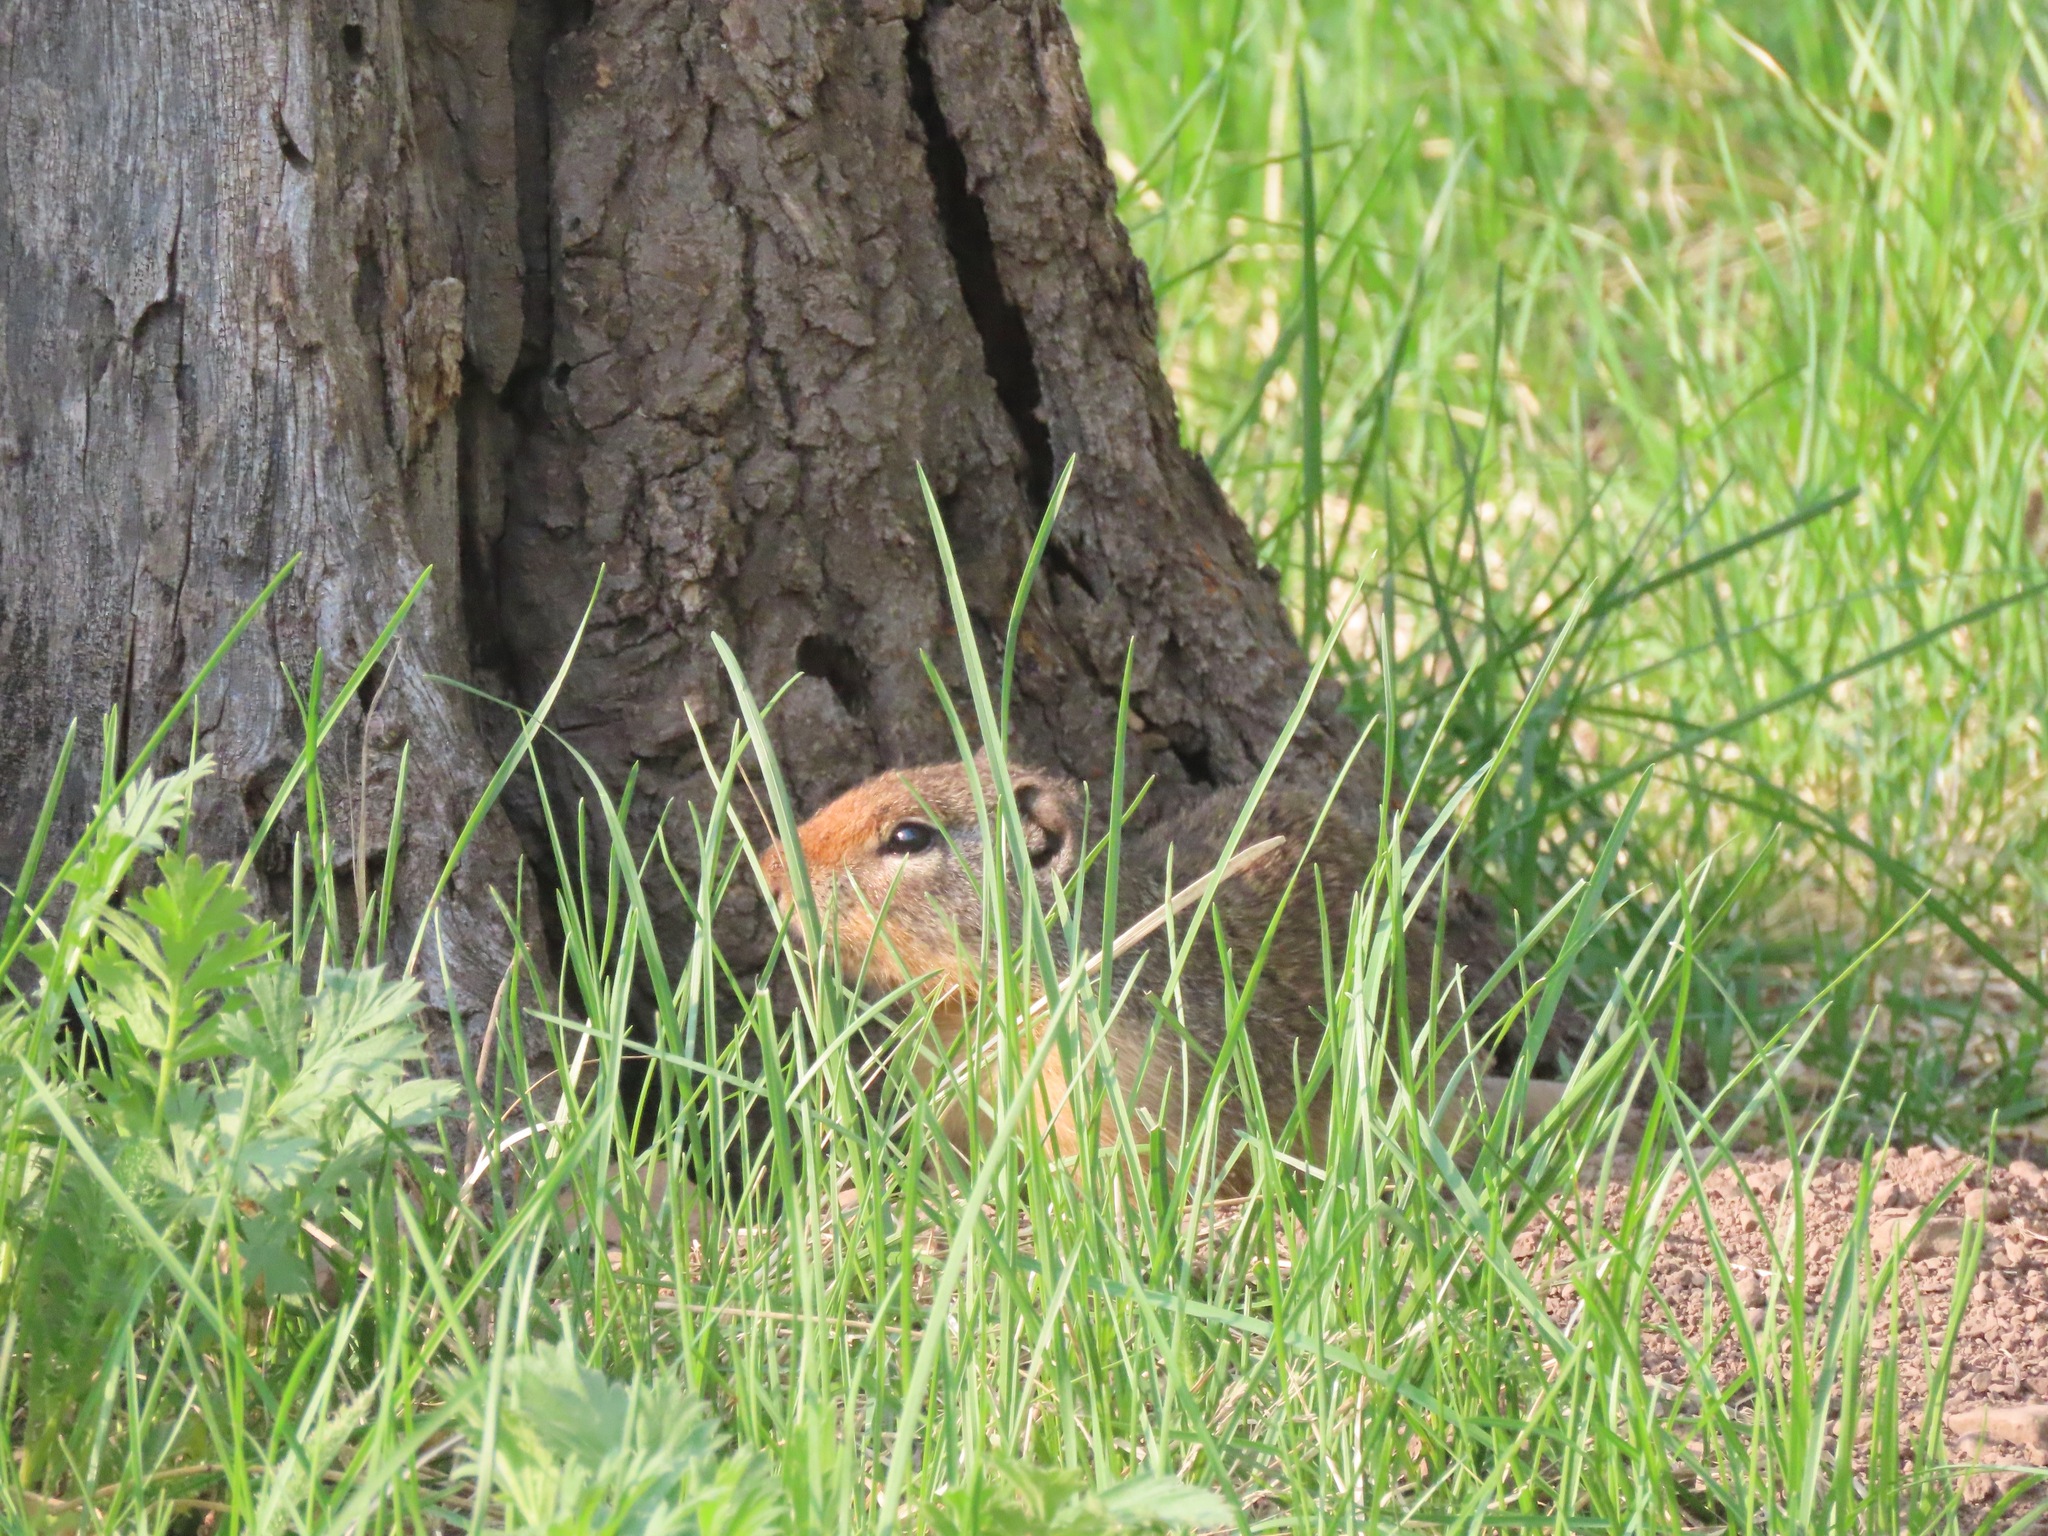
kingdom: Animalia
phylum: Chordata
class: Mammalia
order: Rodentia
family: Sciuridae
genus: Urocitellus
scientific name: Urocitellus columbianus
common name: Columbian ground squirrel
